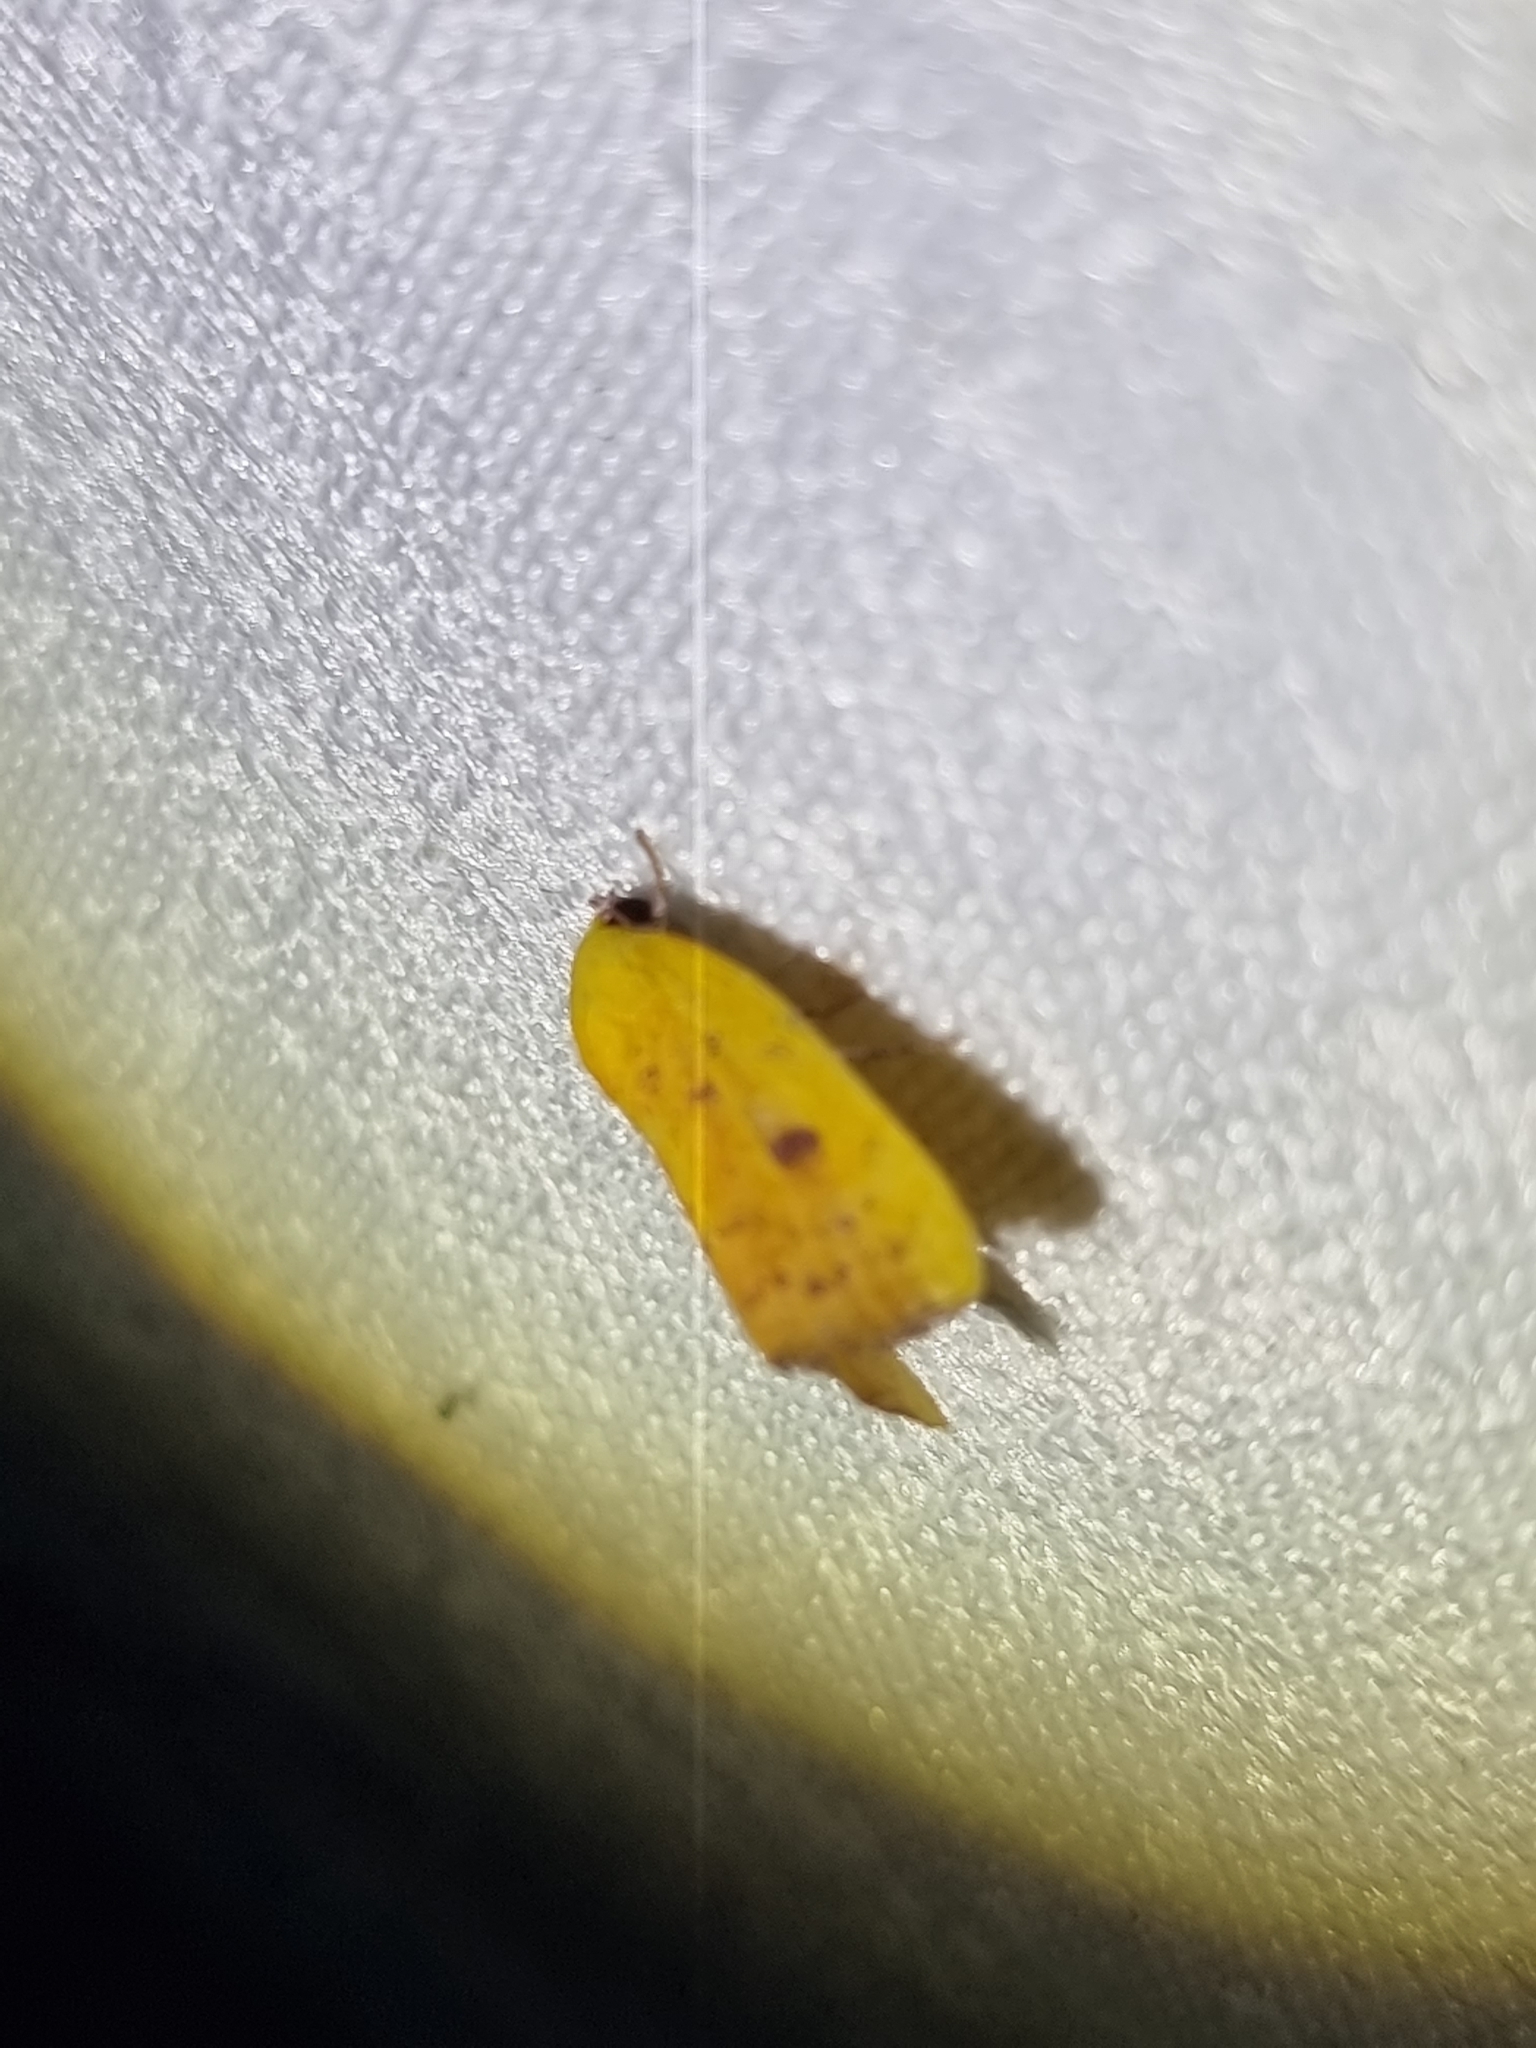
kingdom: Animalia
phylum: Arthropoda
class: Insecta
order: Lepidoptera
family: Nolidae
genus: Earias
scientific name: Earias luteolaria
